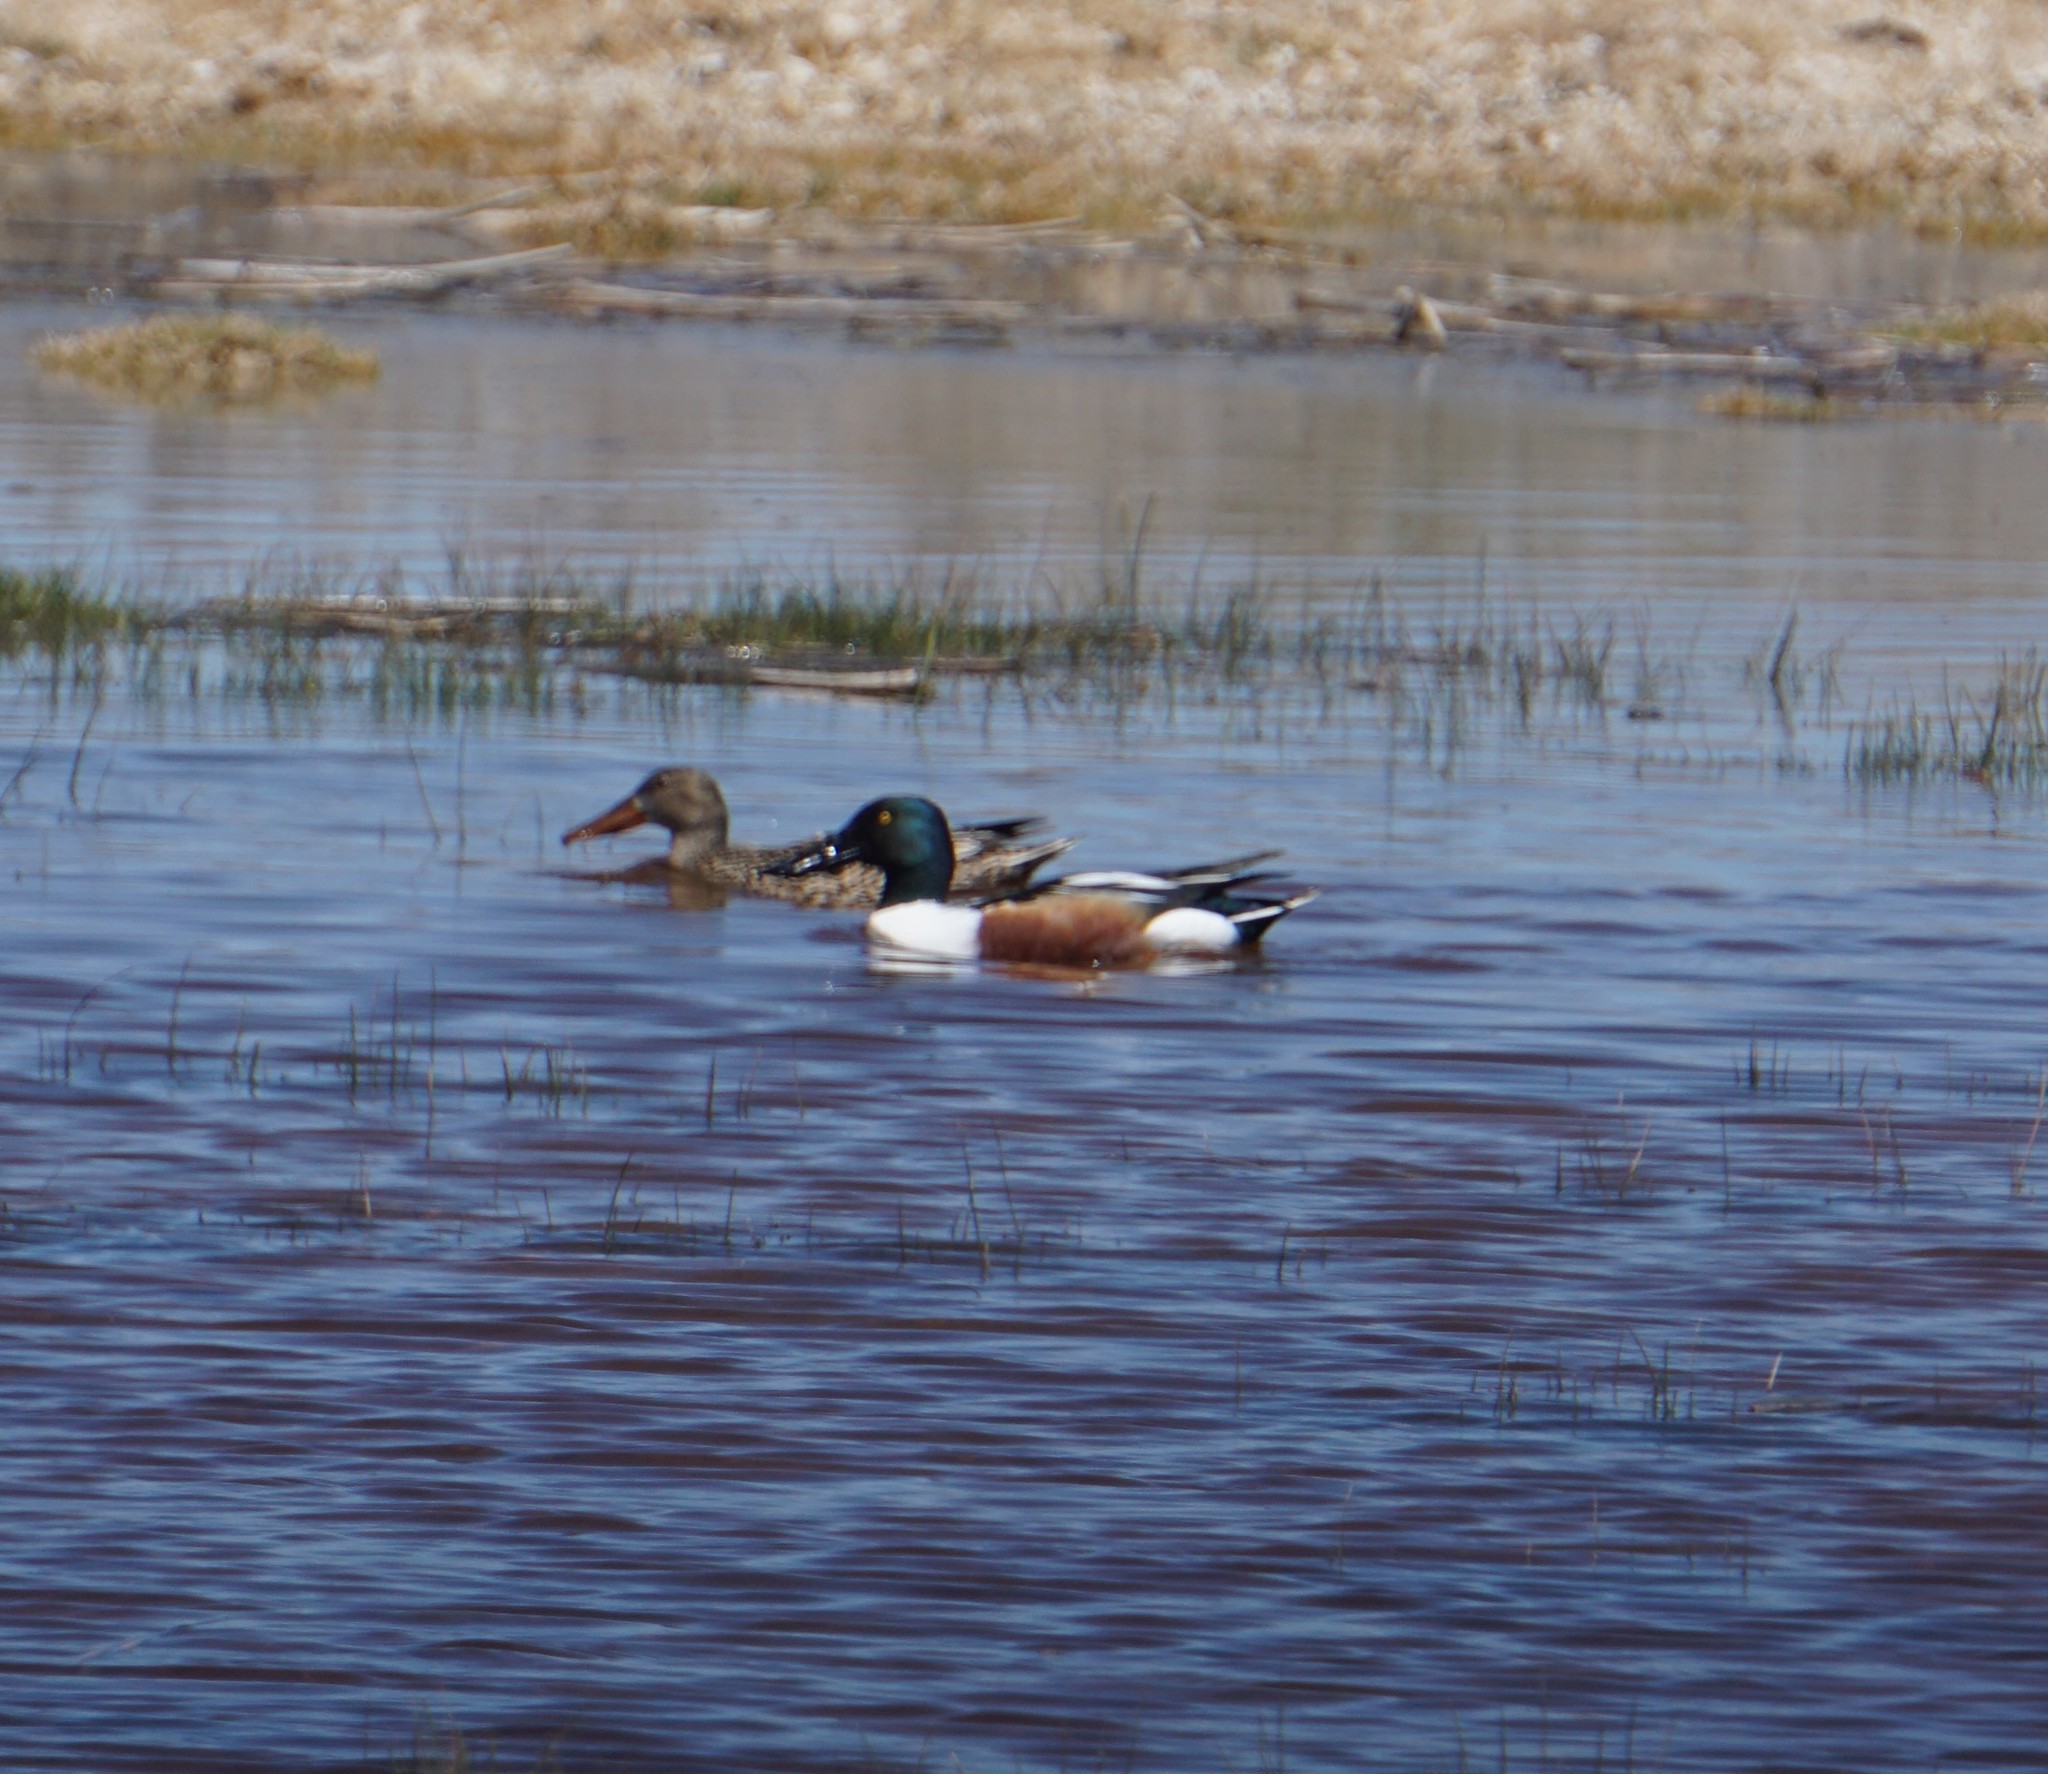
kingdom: Animalia
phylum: Chordata
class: Aves
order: Anseriformes
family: Anatidae
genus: Spatula
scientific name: Spatula clypeata
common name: Northern shoveler
